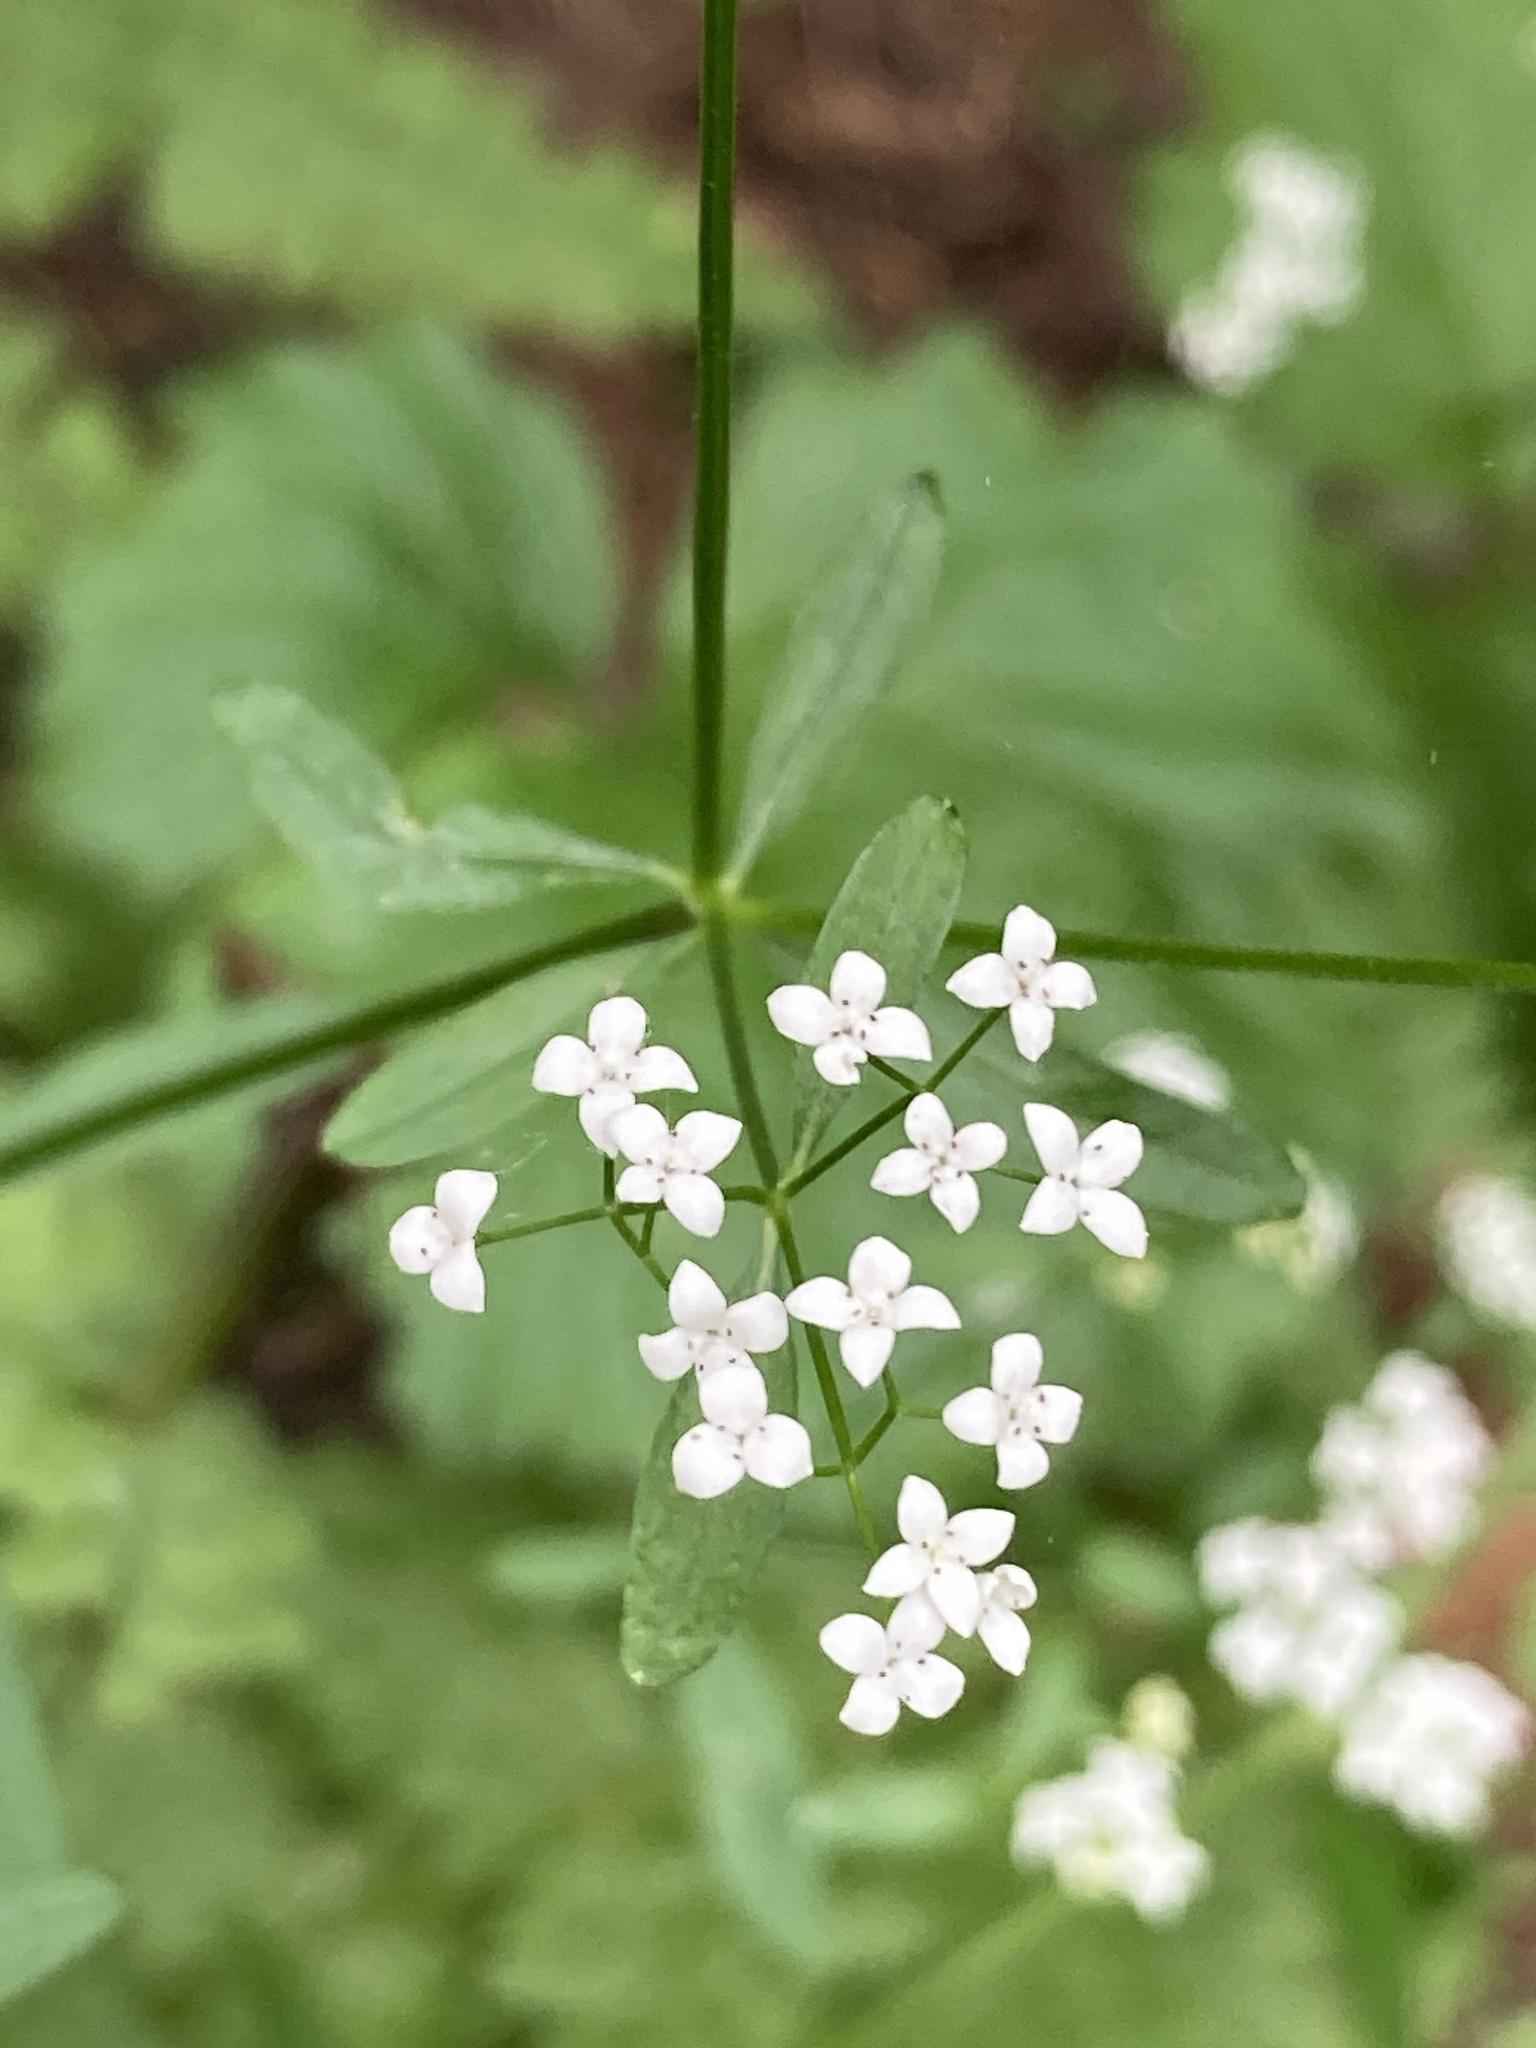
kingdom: Plantae
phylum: Tracheophyta
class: Magnoliopsida
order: Gentianales
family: Rubiaceae
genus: Galium
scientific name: Galium palustre
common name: Common marsh-bedstraw
